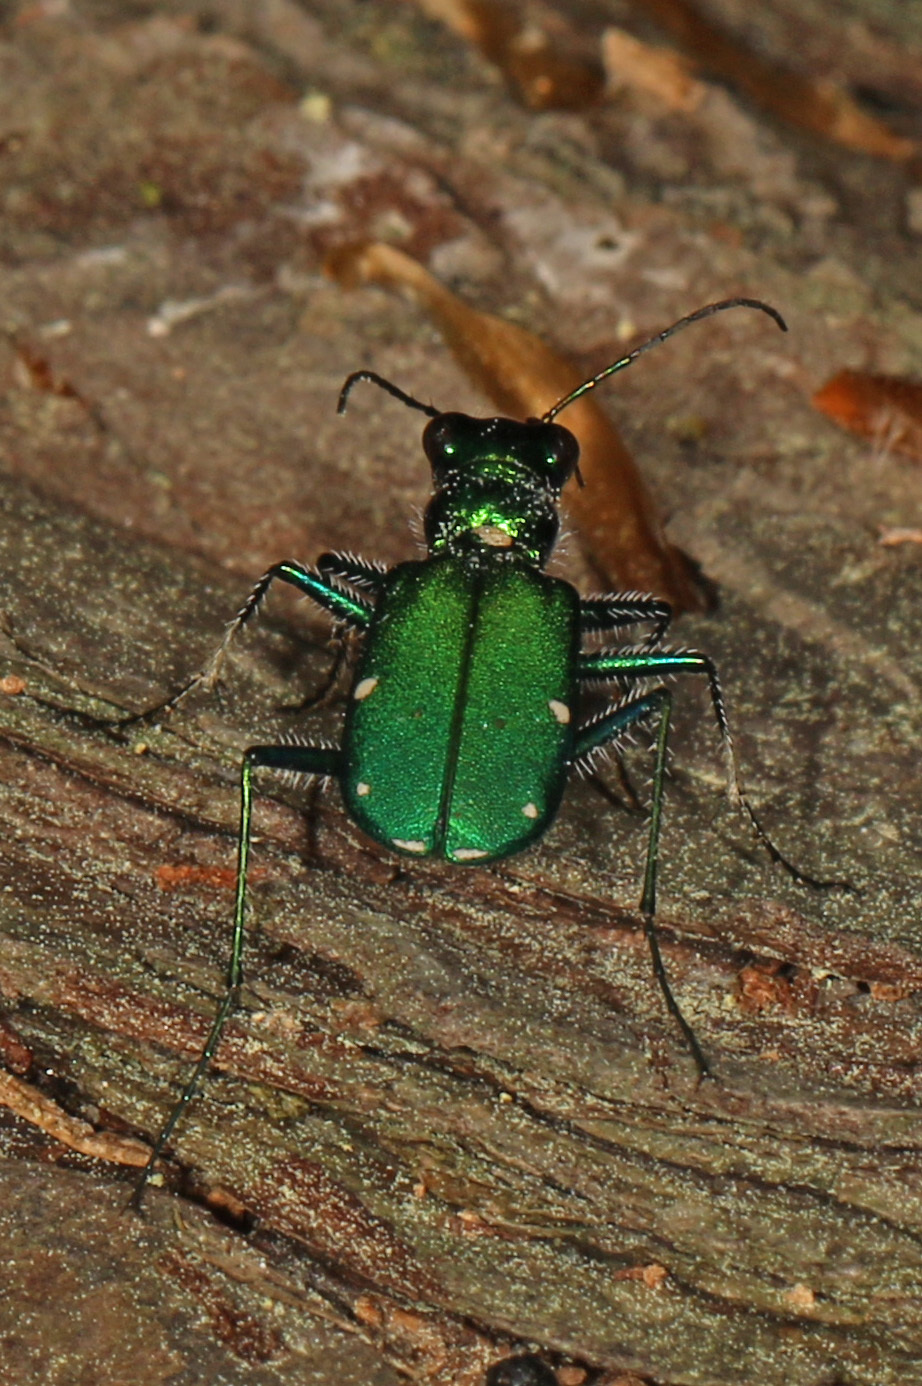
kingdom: Animalia
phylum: Arthropoda
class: Insecta
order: Coleoptera
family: Carabidae
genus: Cicindela
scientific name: Cicindela sexguttata
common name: Six-spotted tiger beetle
